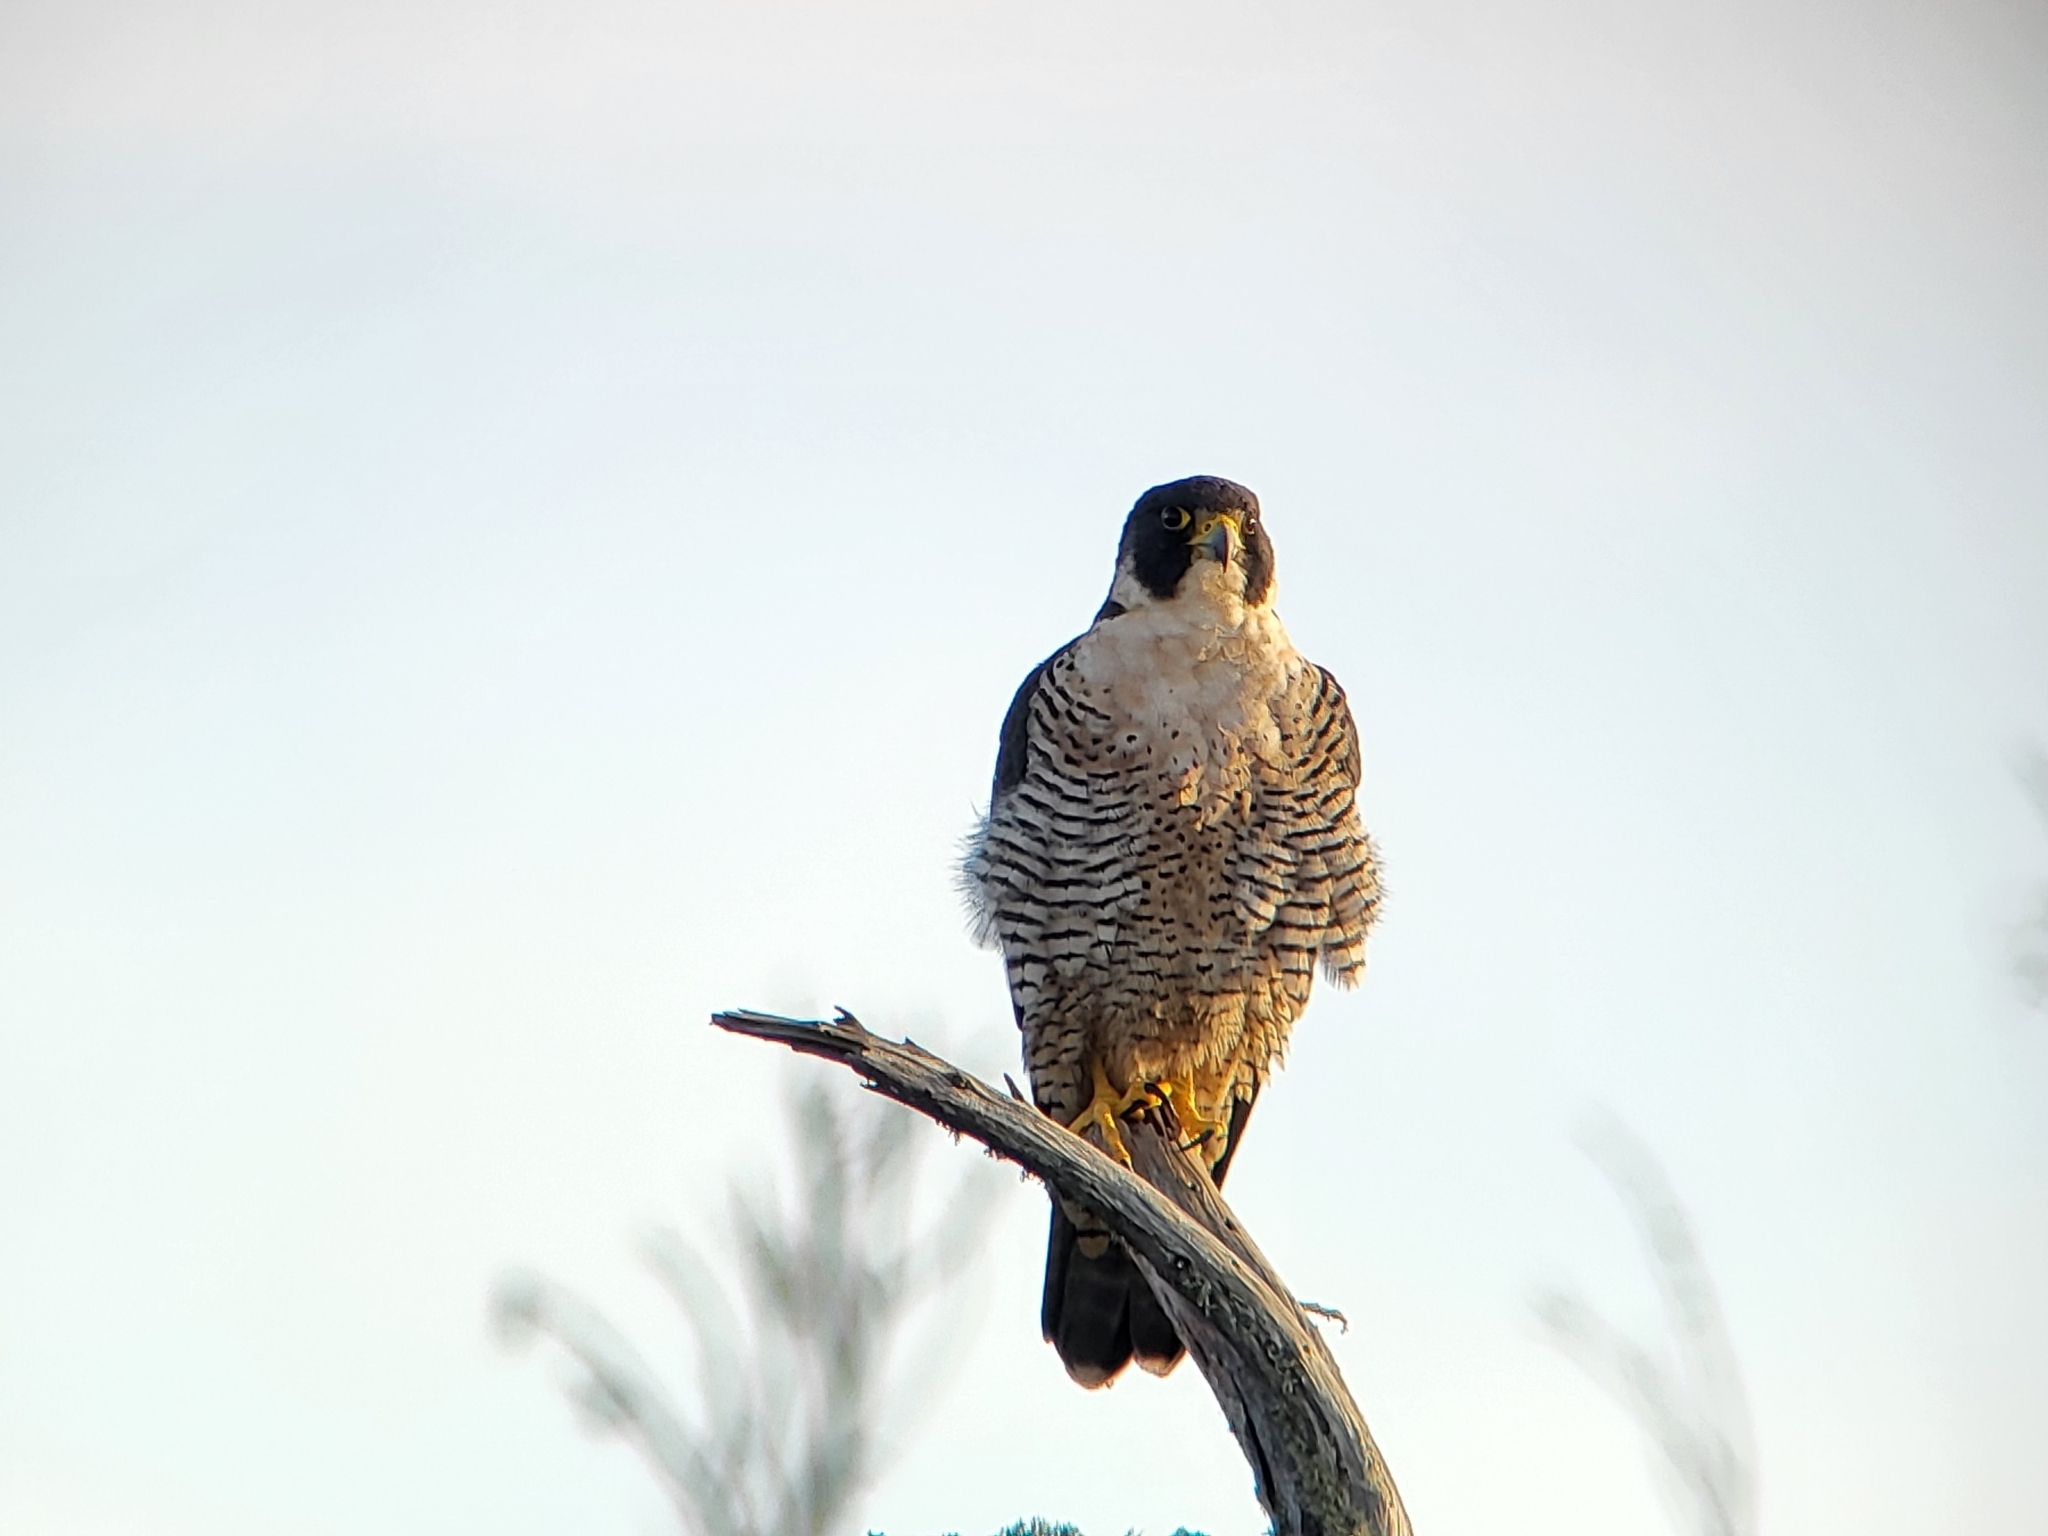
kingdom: Animalia
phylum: Chordata
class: Aves
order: Falconiformes
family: Falconidae
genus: Falco
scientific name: Falco peregrinus
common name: Peregrine falcon
